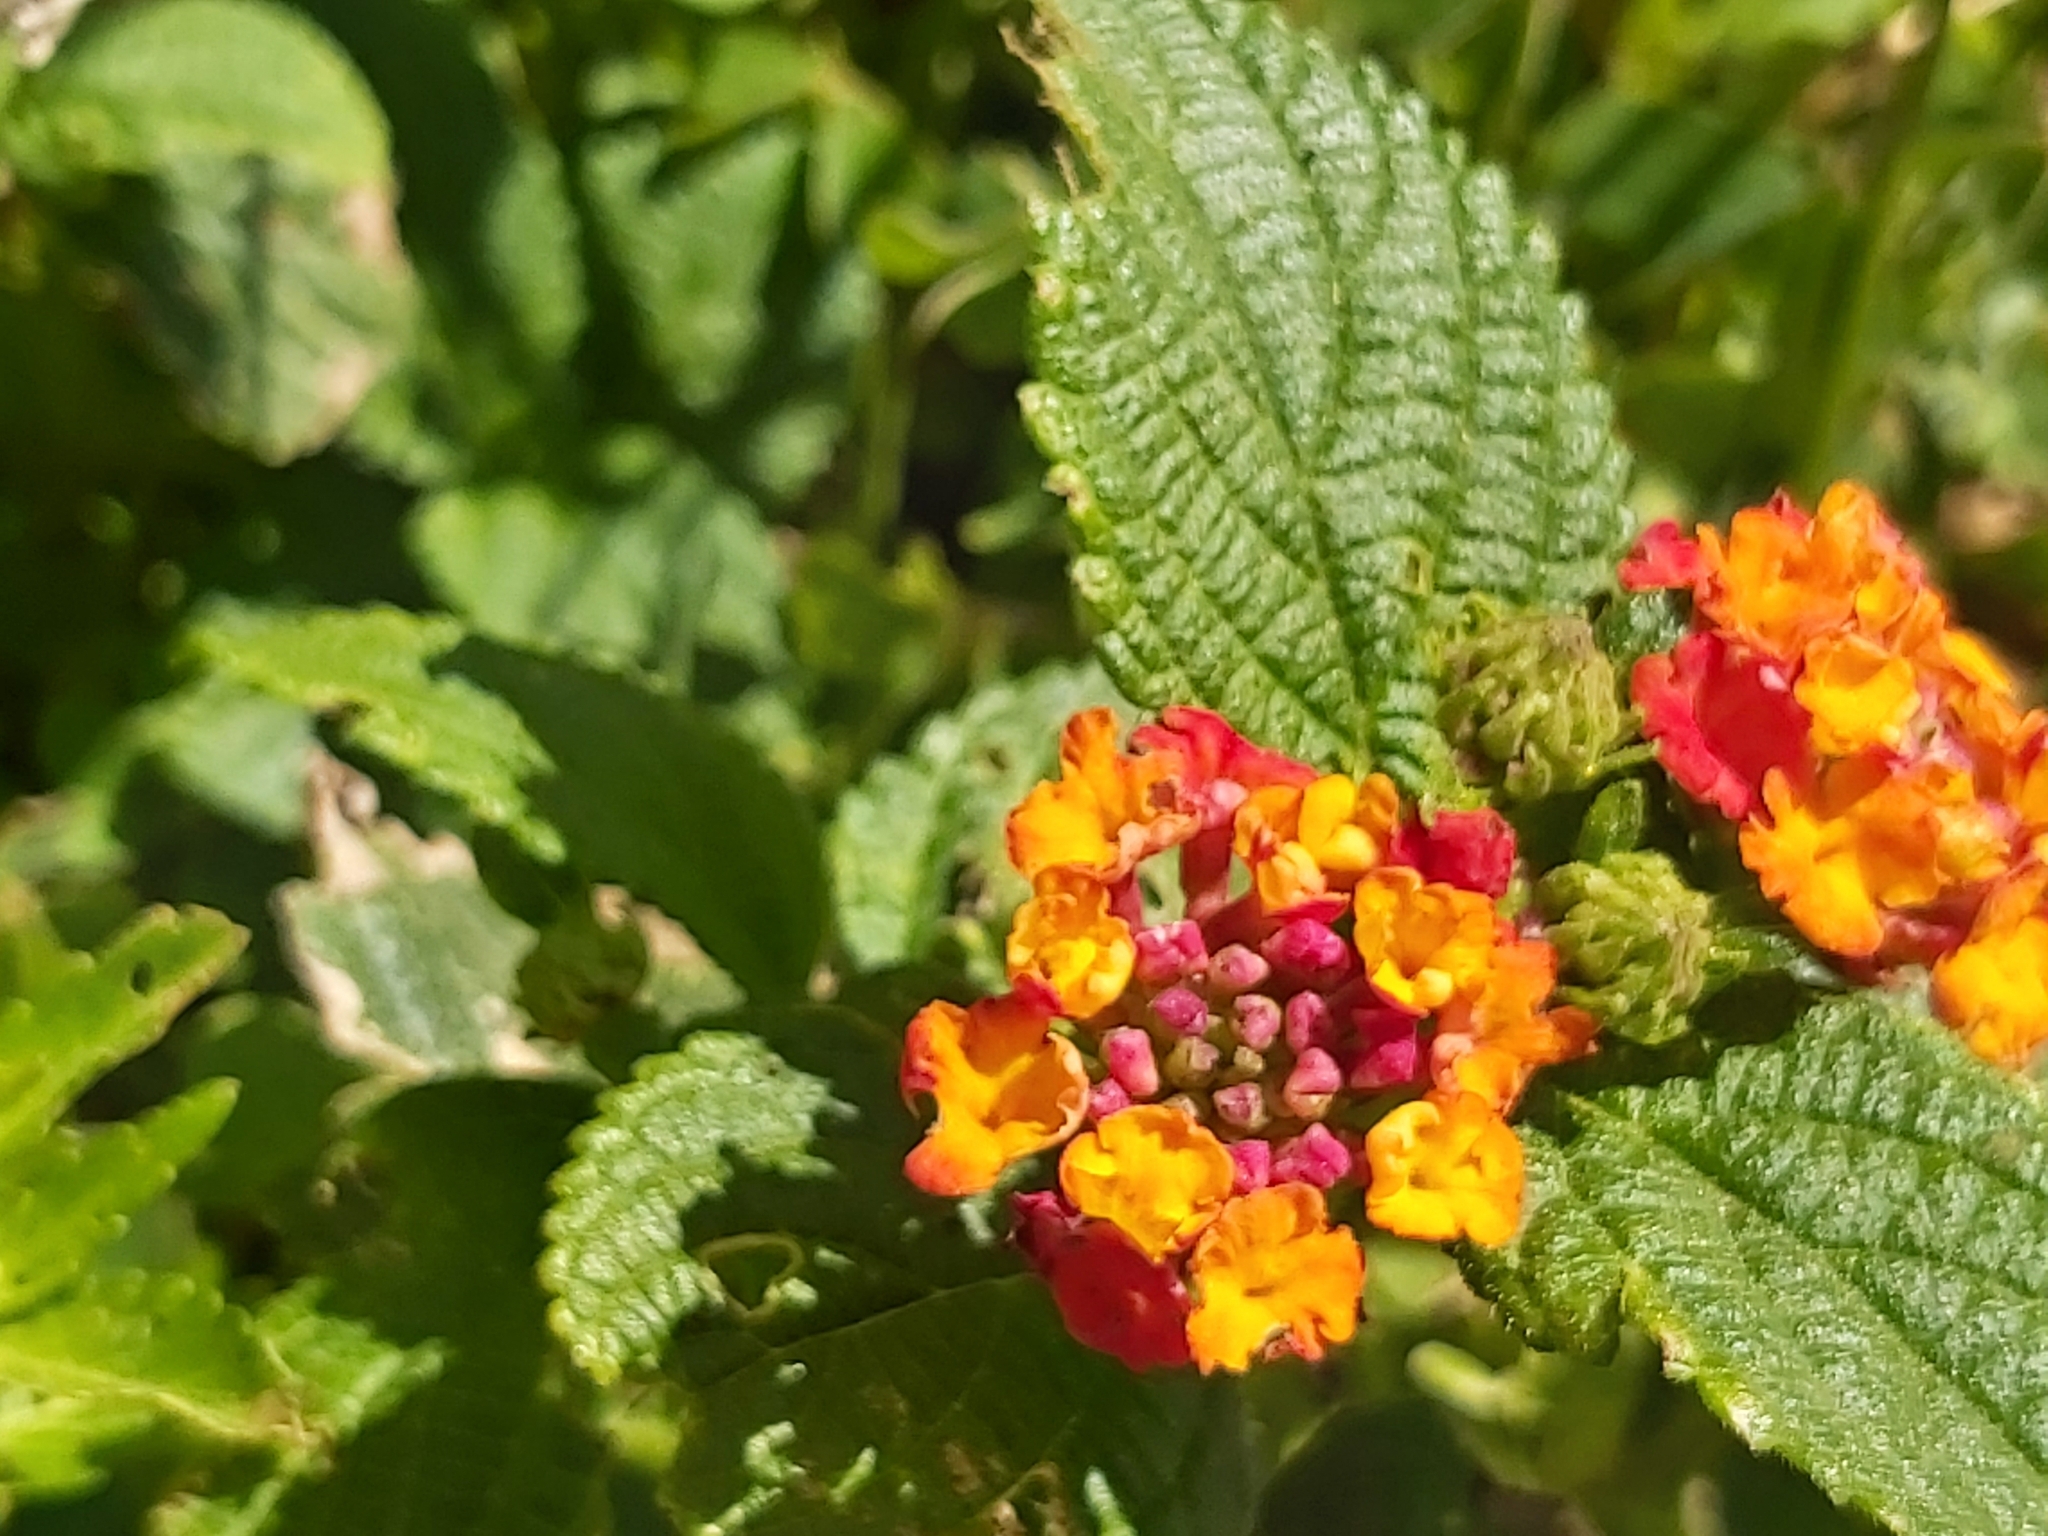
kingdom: Plantae
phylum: Tracheophyta
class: Magnoliopsida
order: Lamiales
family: Verbenaceae
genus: Lantana
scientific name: Lantana camara
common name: Lantana
